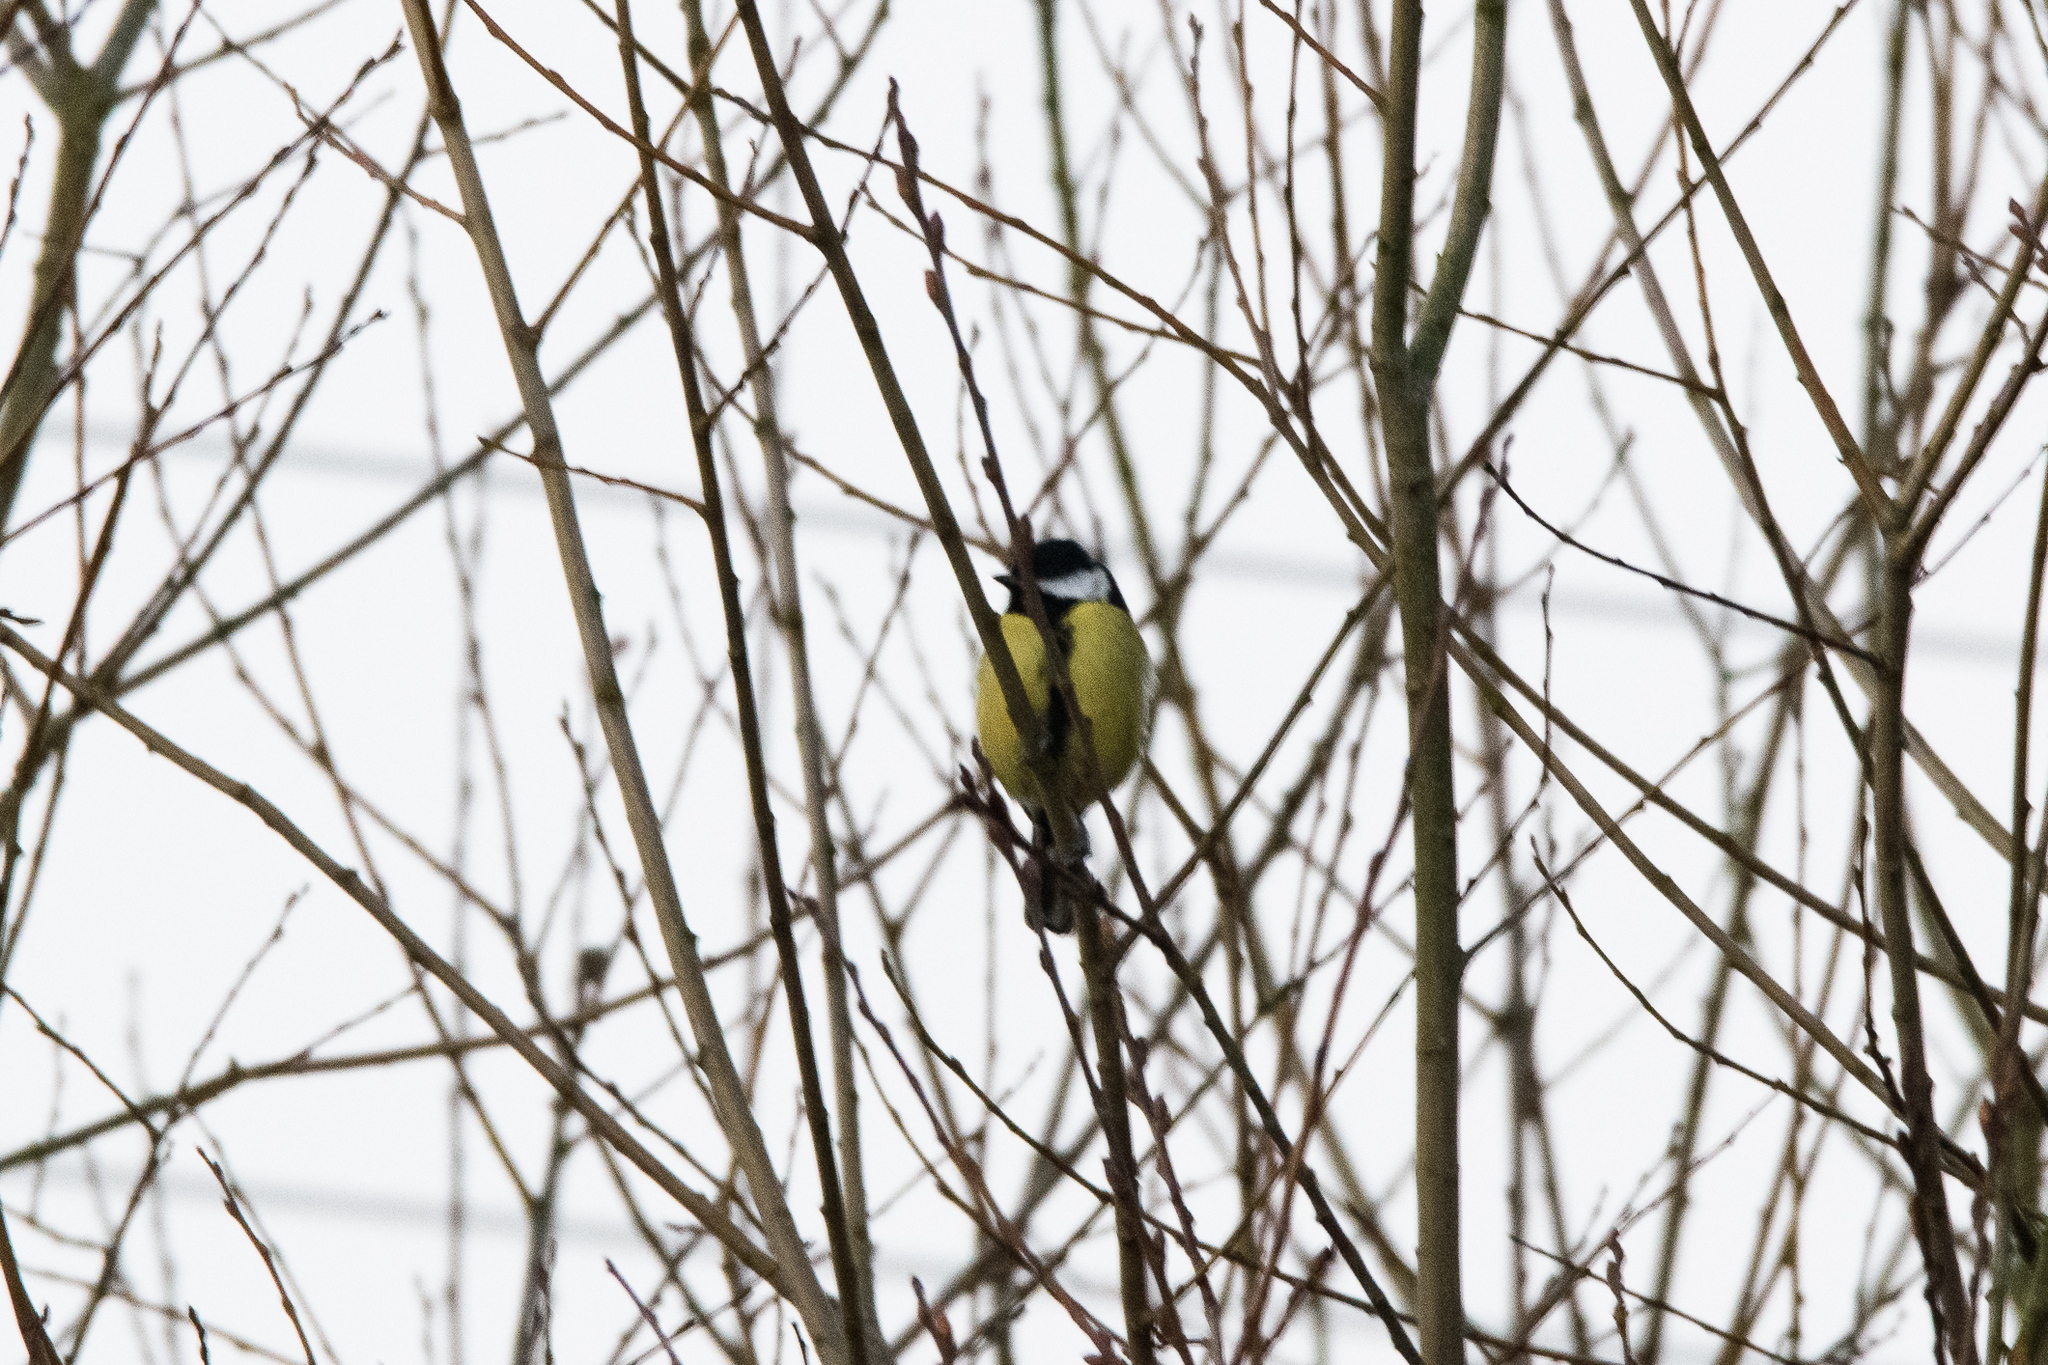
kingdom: Animalia
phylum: Chordata
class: Aves
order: Passeriformes
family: Paridae
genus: Parus
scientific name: Parus major
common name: Great tit
